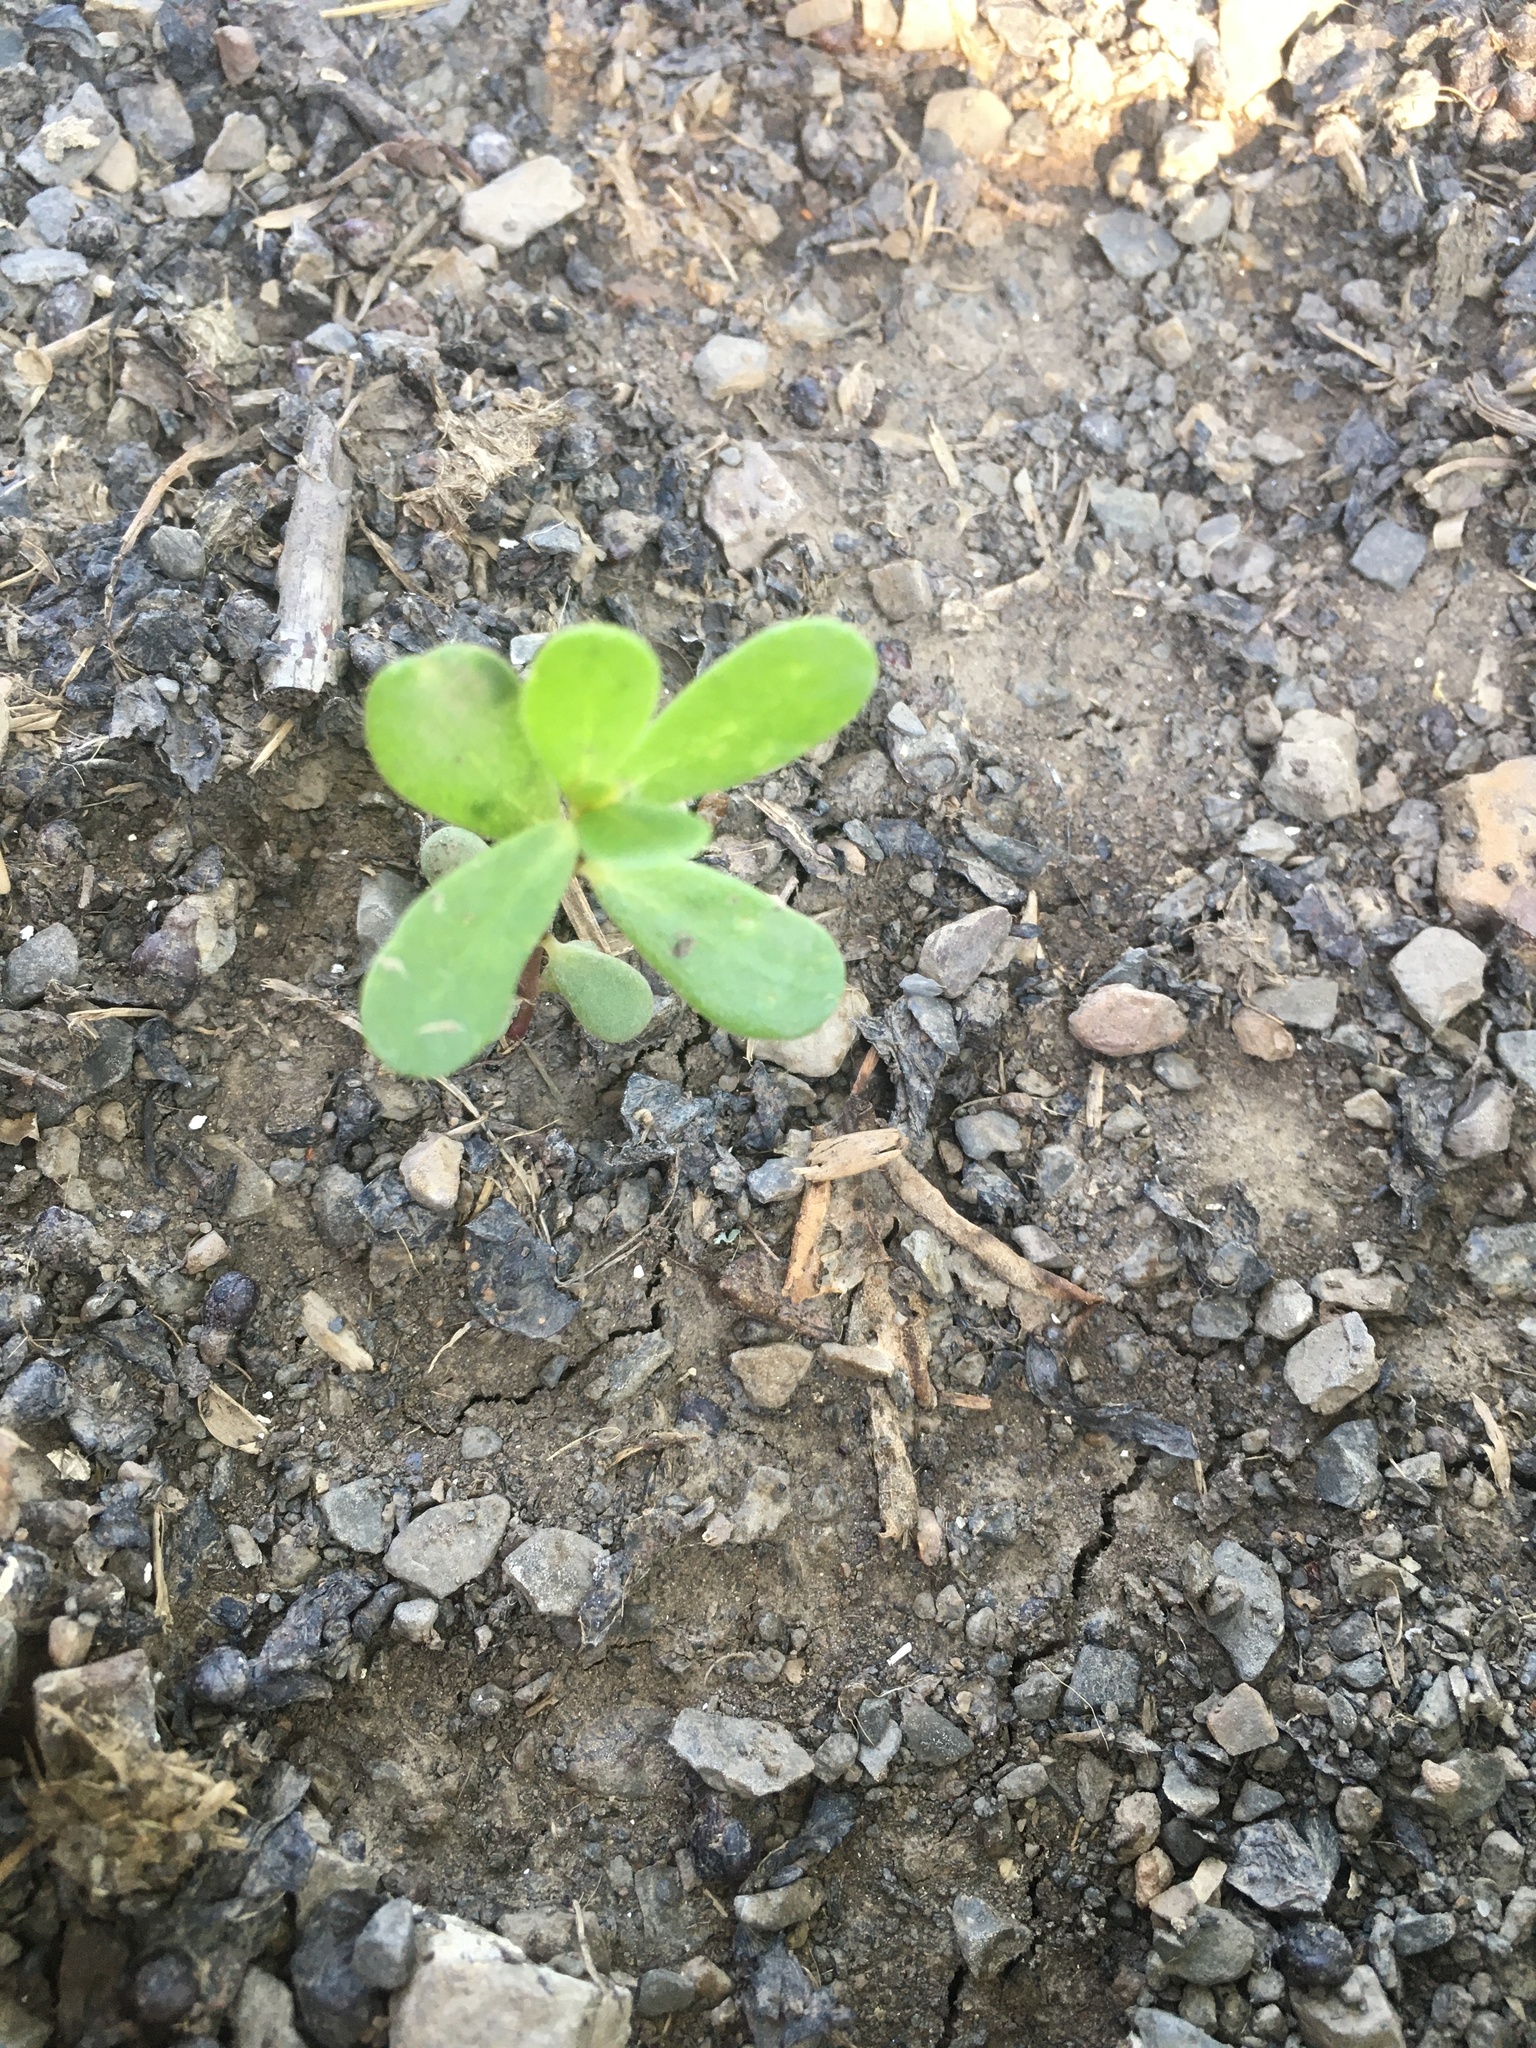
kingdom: Plantae
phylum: Tracheophyta
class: Magnoliopsida
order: Caryophyllales
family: Portulacaceae
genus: Portulaca
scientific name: Portulaca oleracea
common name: Common purslane
